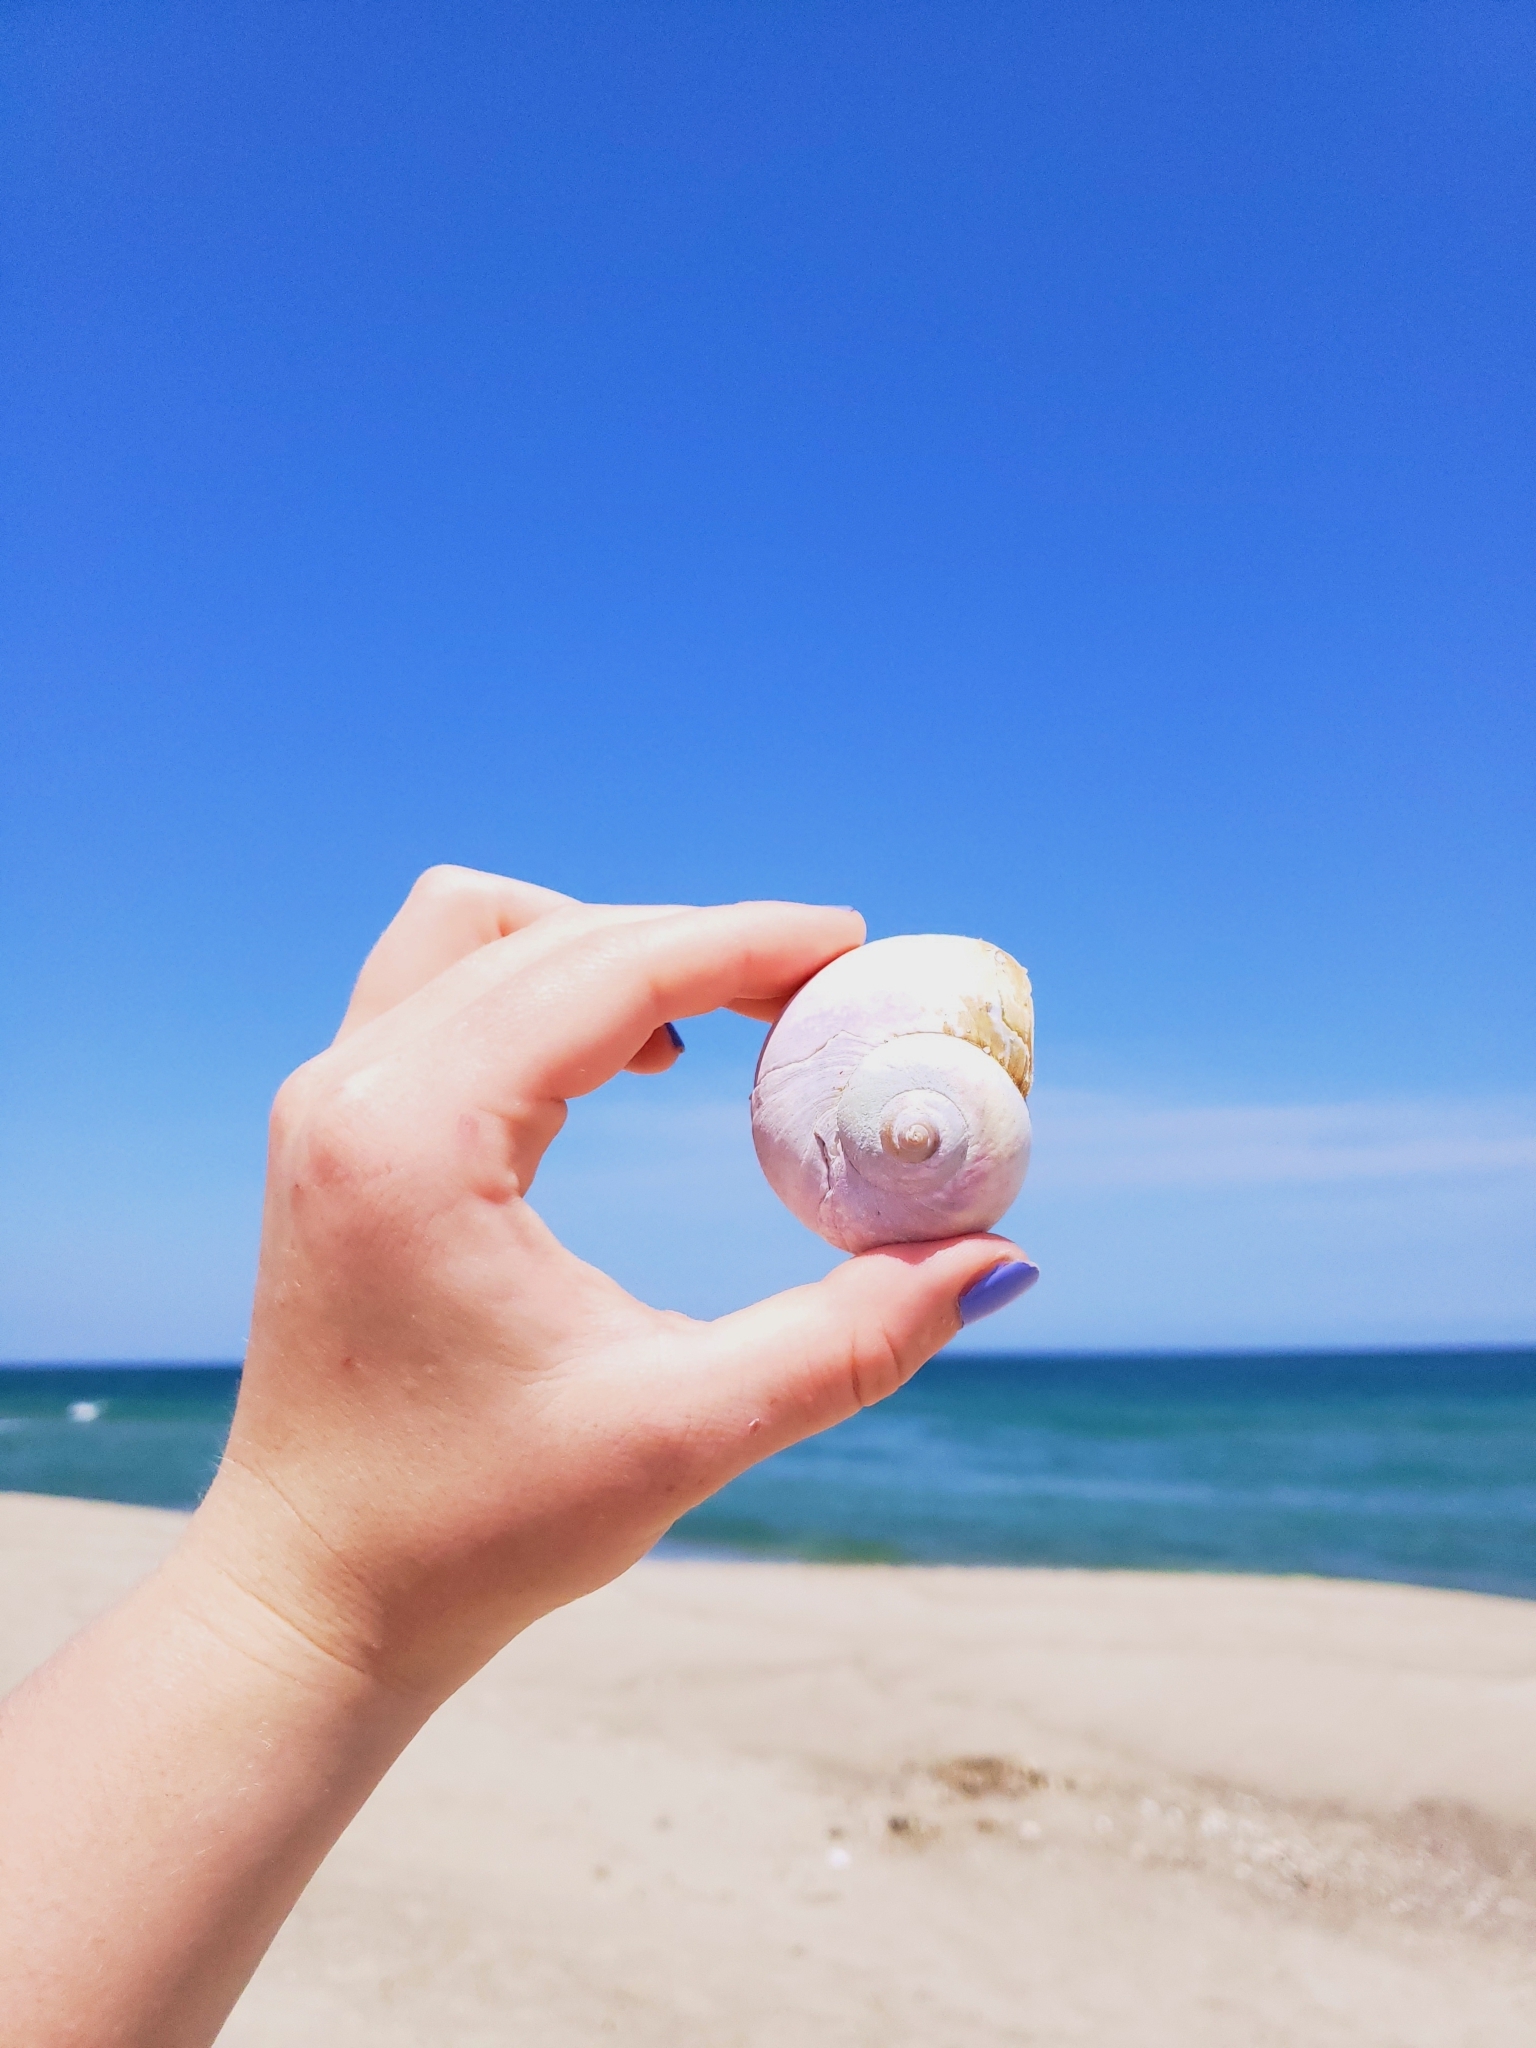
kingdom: Animalia
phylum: Mollusca
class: Gastropoda
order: Littorinimorpha
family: Naticidae
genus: Euspira
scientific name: Euspira heros
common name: Common northern moonsnail
